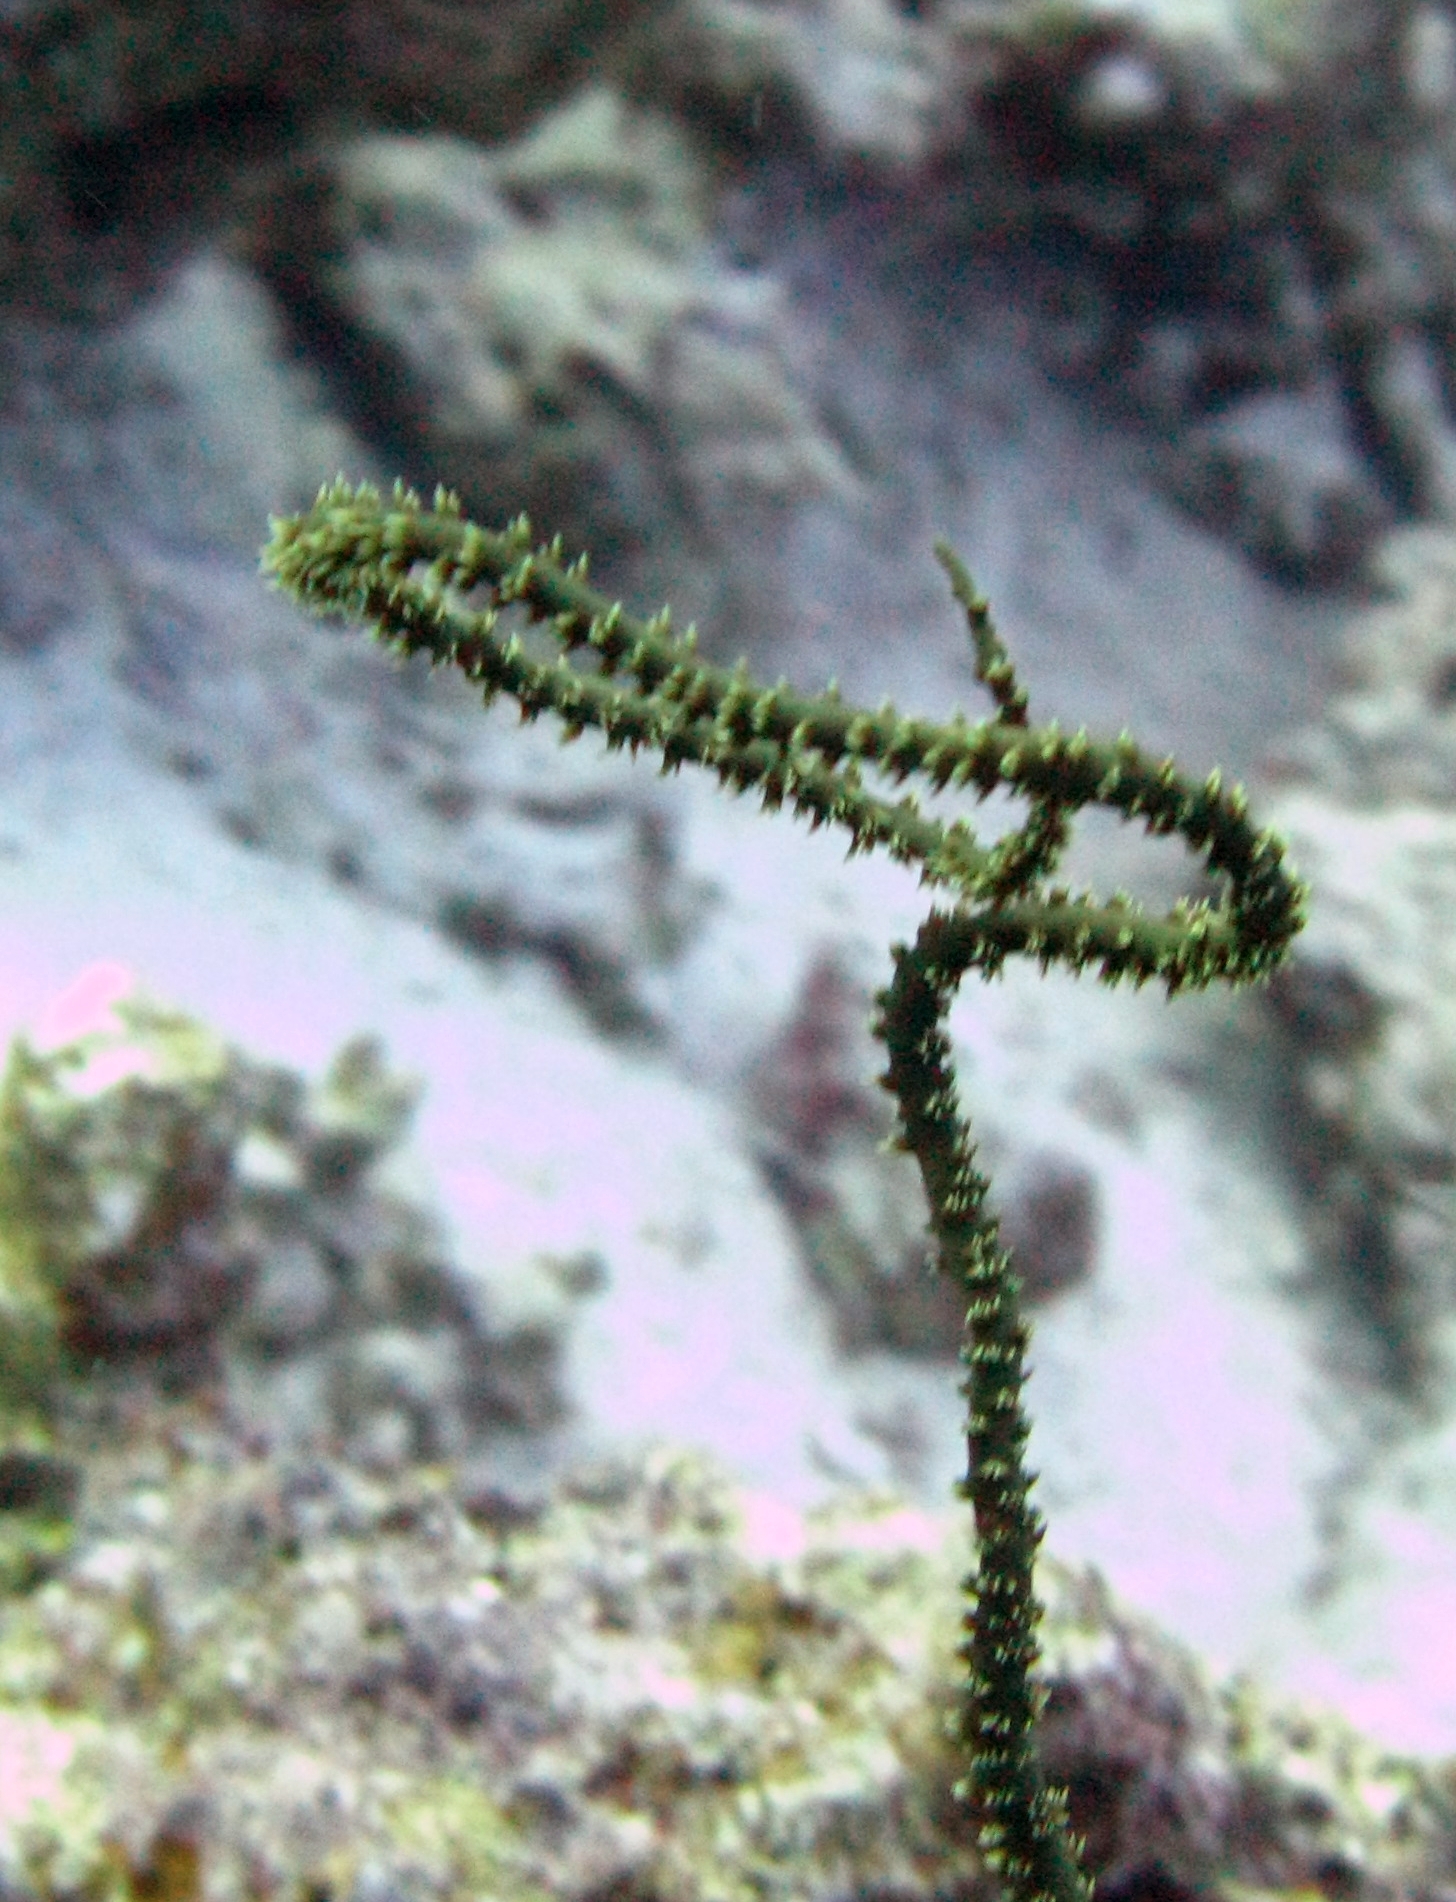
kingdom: Animalia
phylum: Cnidaria
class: Anthozoa
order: Antipatharia
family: Antipathidae
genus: Cirrhipathes
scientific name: Cirrhipathes
